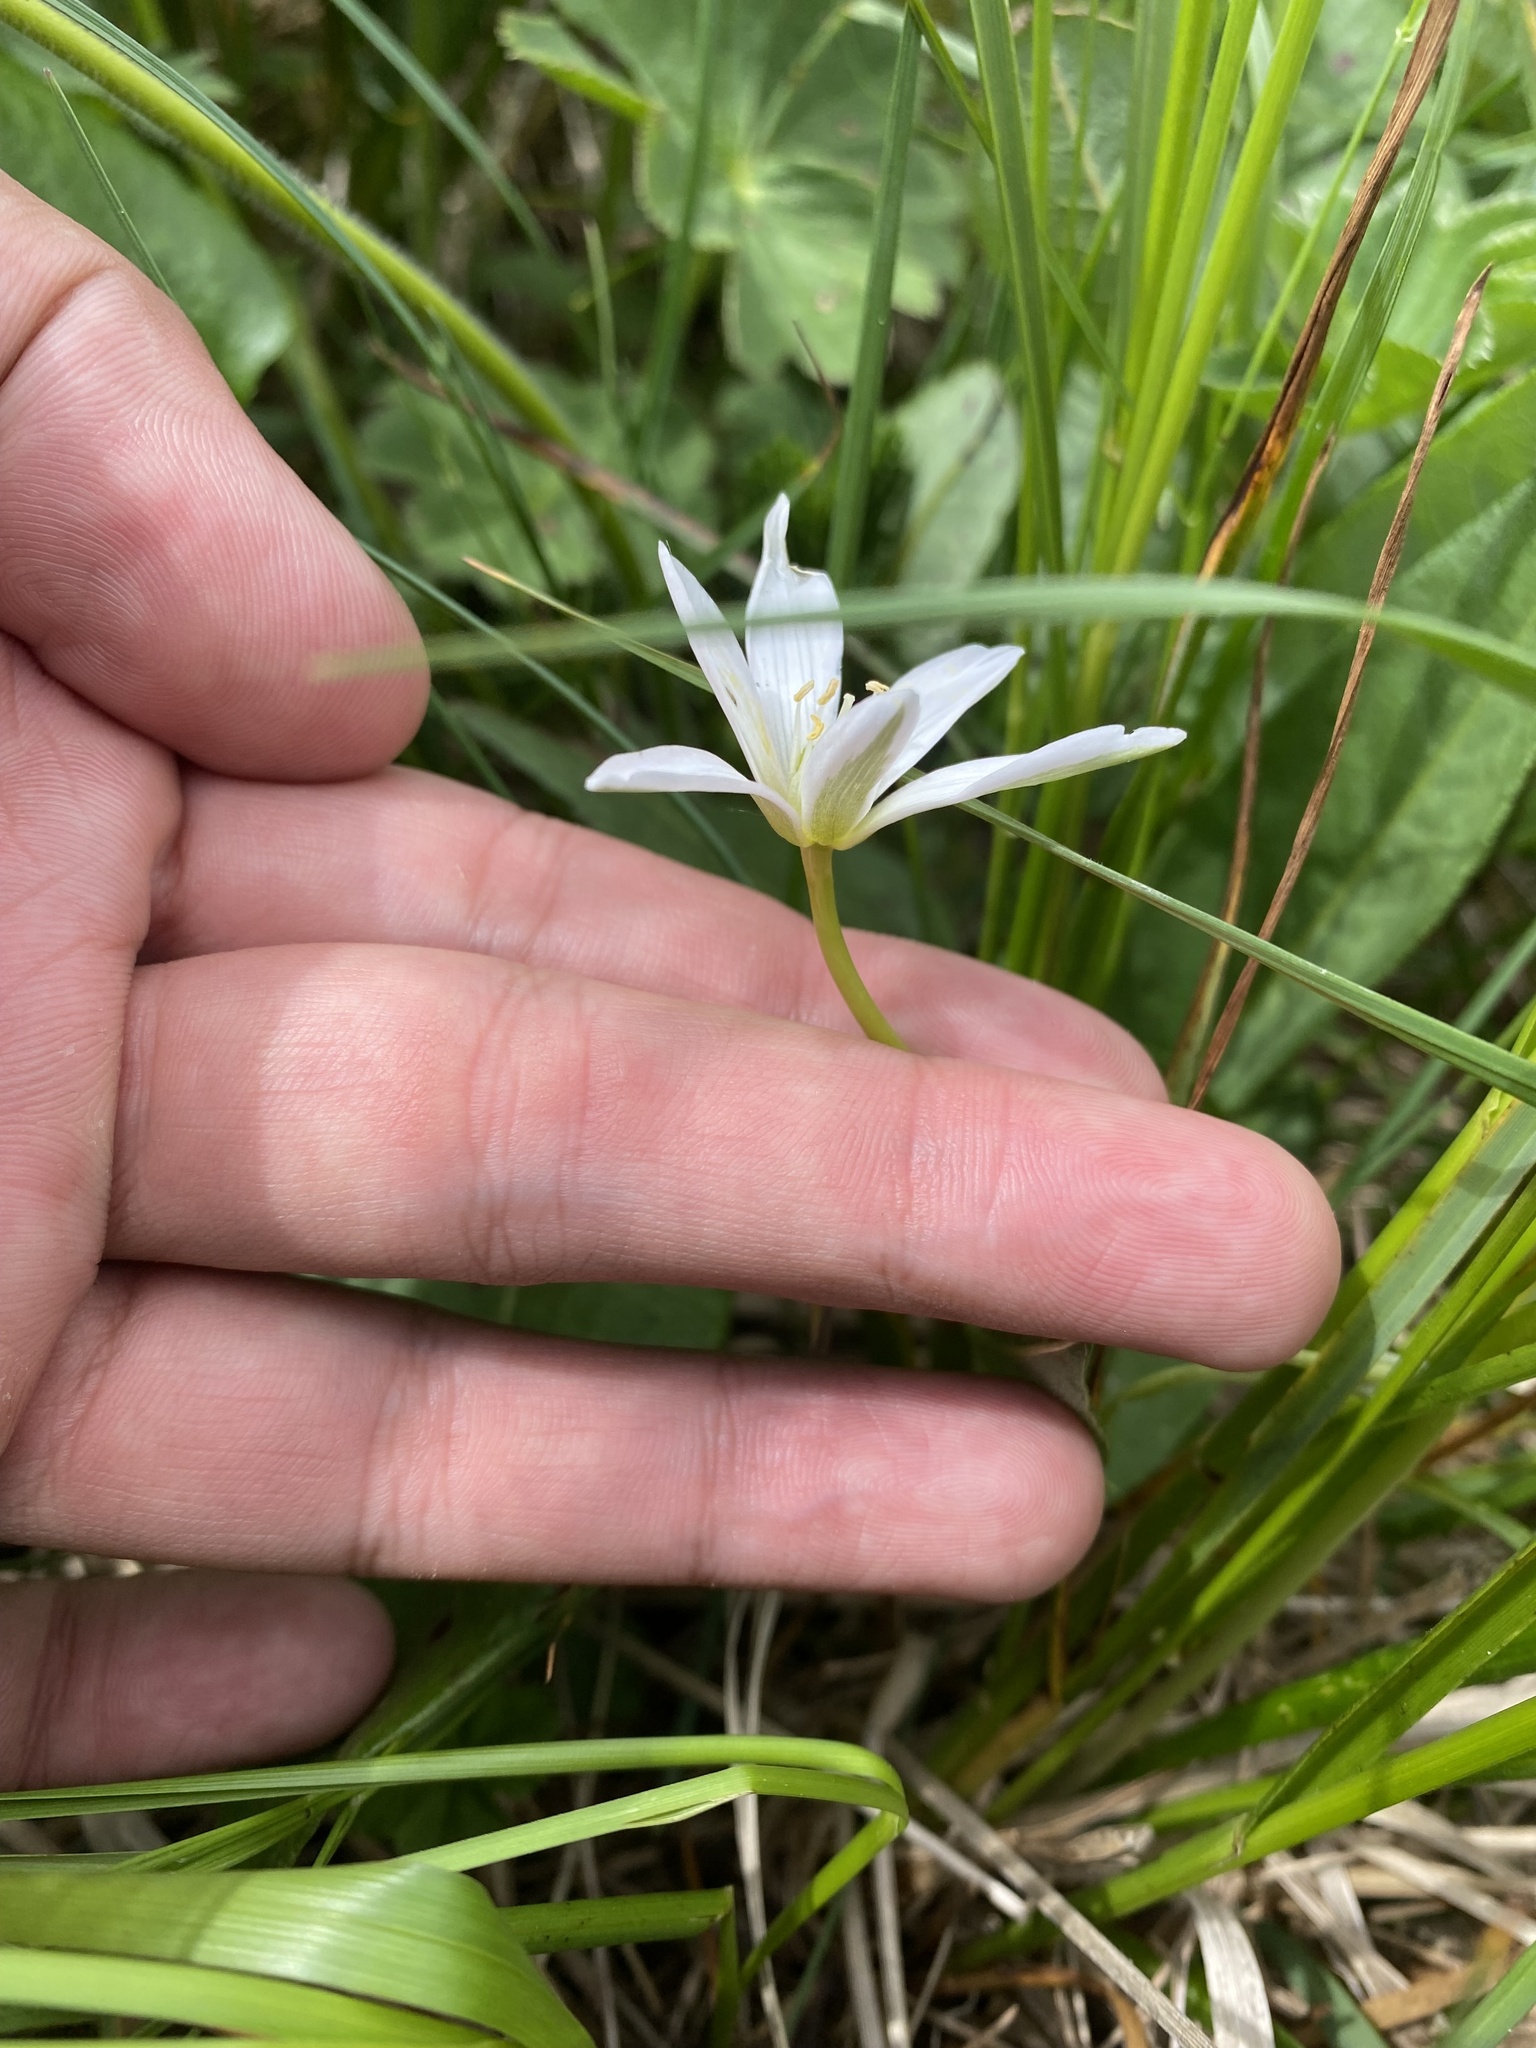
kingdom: Plantae
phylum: Tracheophyta
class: Liliopsida
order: Asparagales
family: Asparagaceae
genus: Ornithogalum
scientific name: Ornithogalum woronowii
